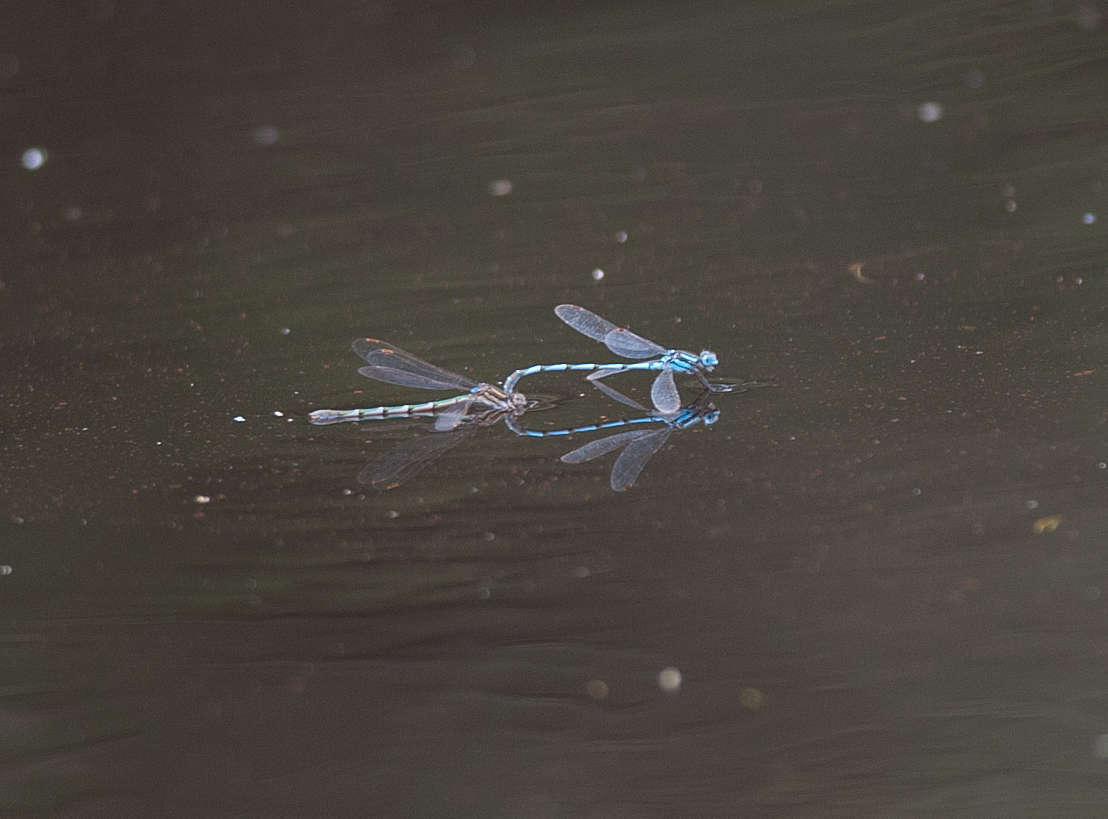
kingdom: Animalia
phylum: Arthropoda
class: Insecta
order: Odonata
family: Lestidae
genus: Austrolestes
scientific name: Austrolestes annulosus
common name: Blue ringtail
